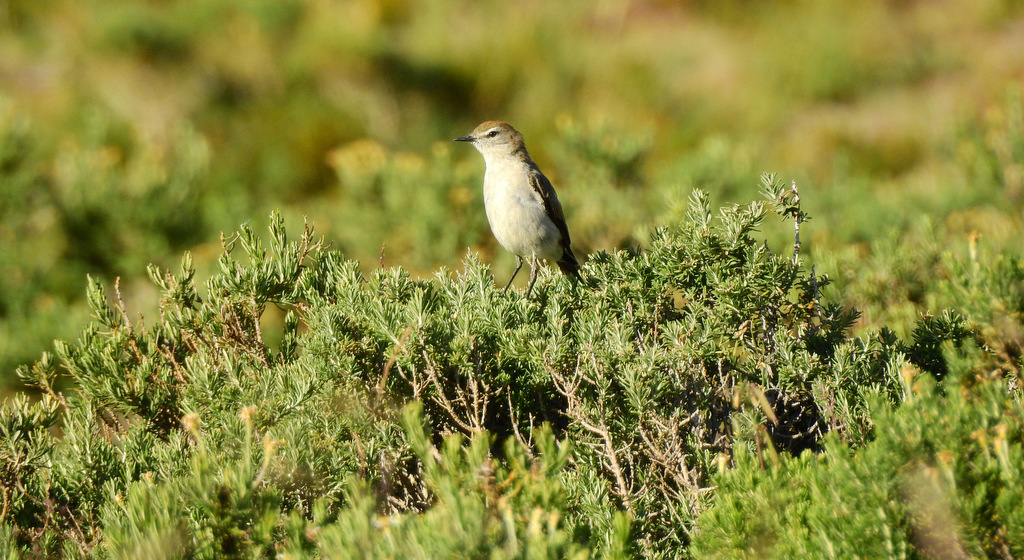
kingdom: Animalia
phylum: Chordata
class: Aves
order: Passeriformes
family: Tyrannidae
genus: Muscisaxicola
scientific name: Muscisaxicola albilora
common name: White-browed ground tyrant
